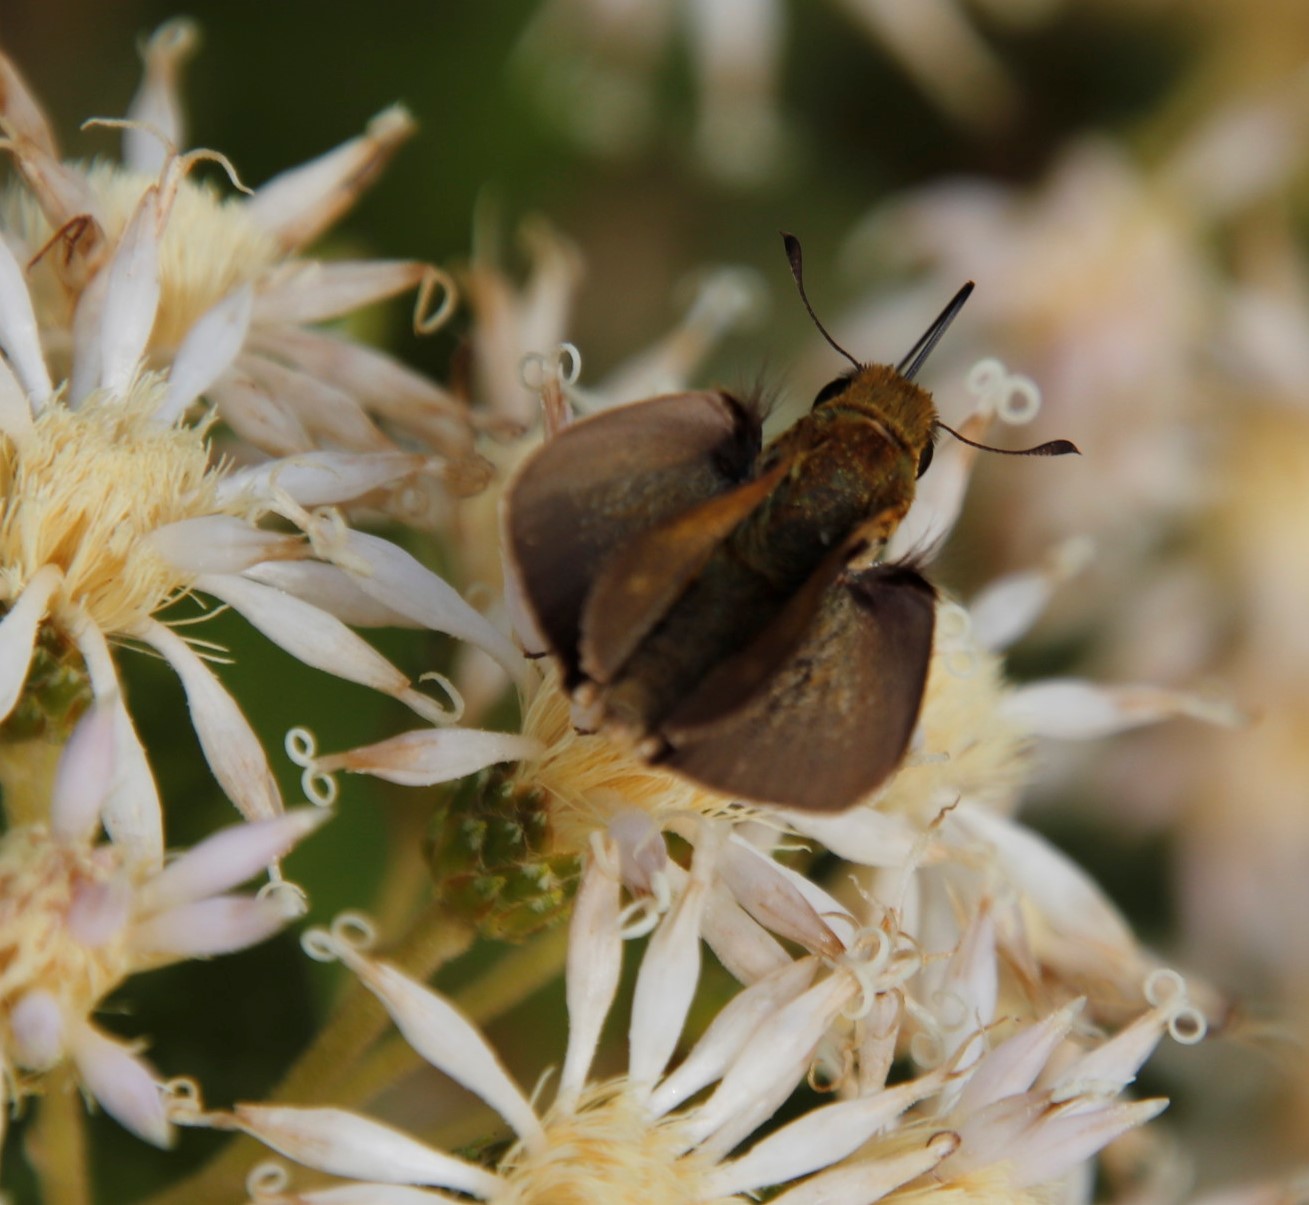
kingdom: Animalia
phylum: Arthropoda
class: Insecta
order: Hymenoptera
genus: Afrogenes
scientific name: Afrogenes
